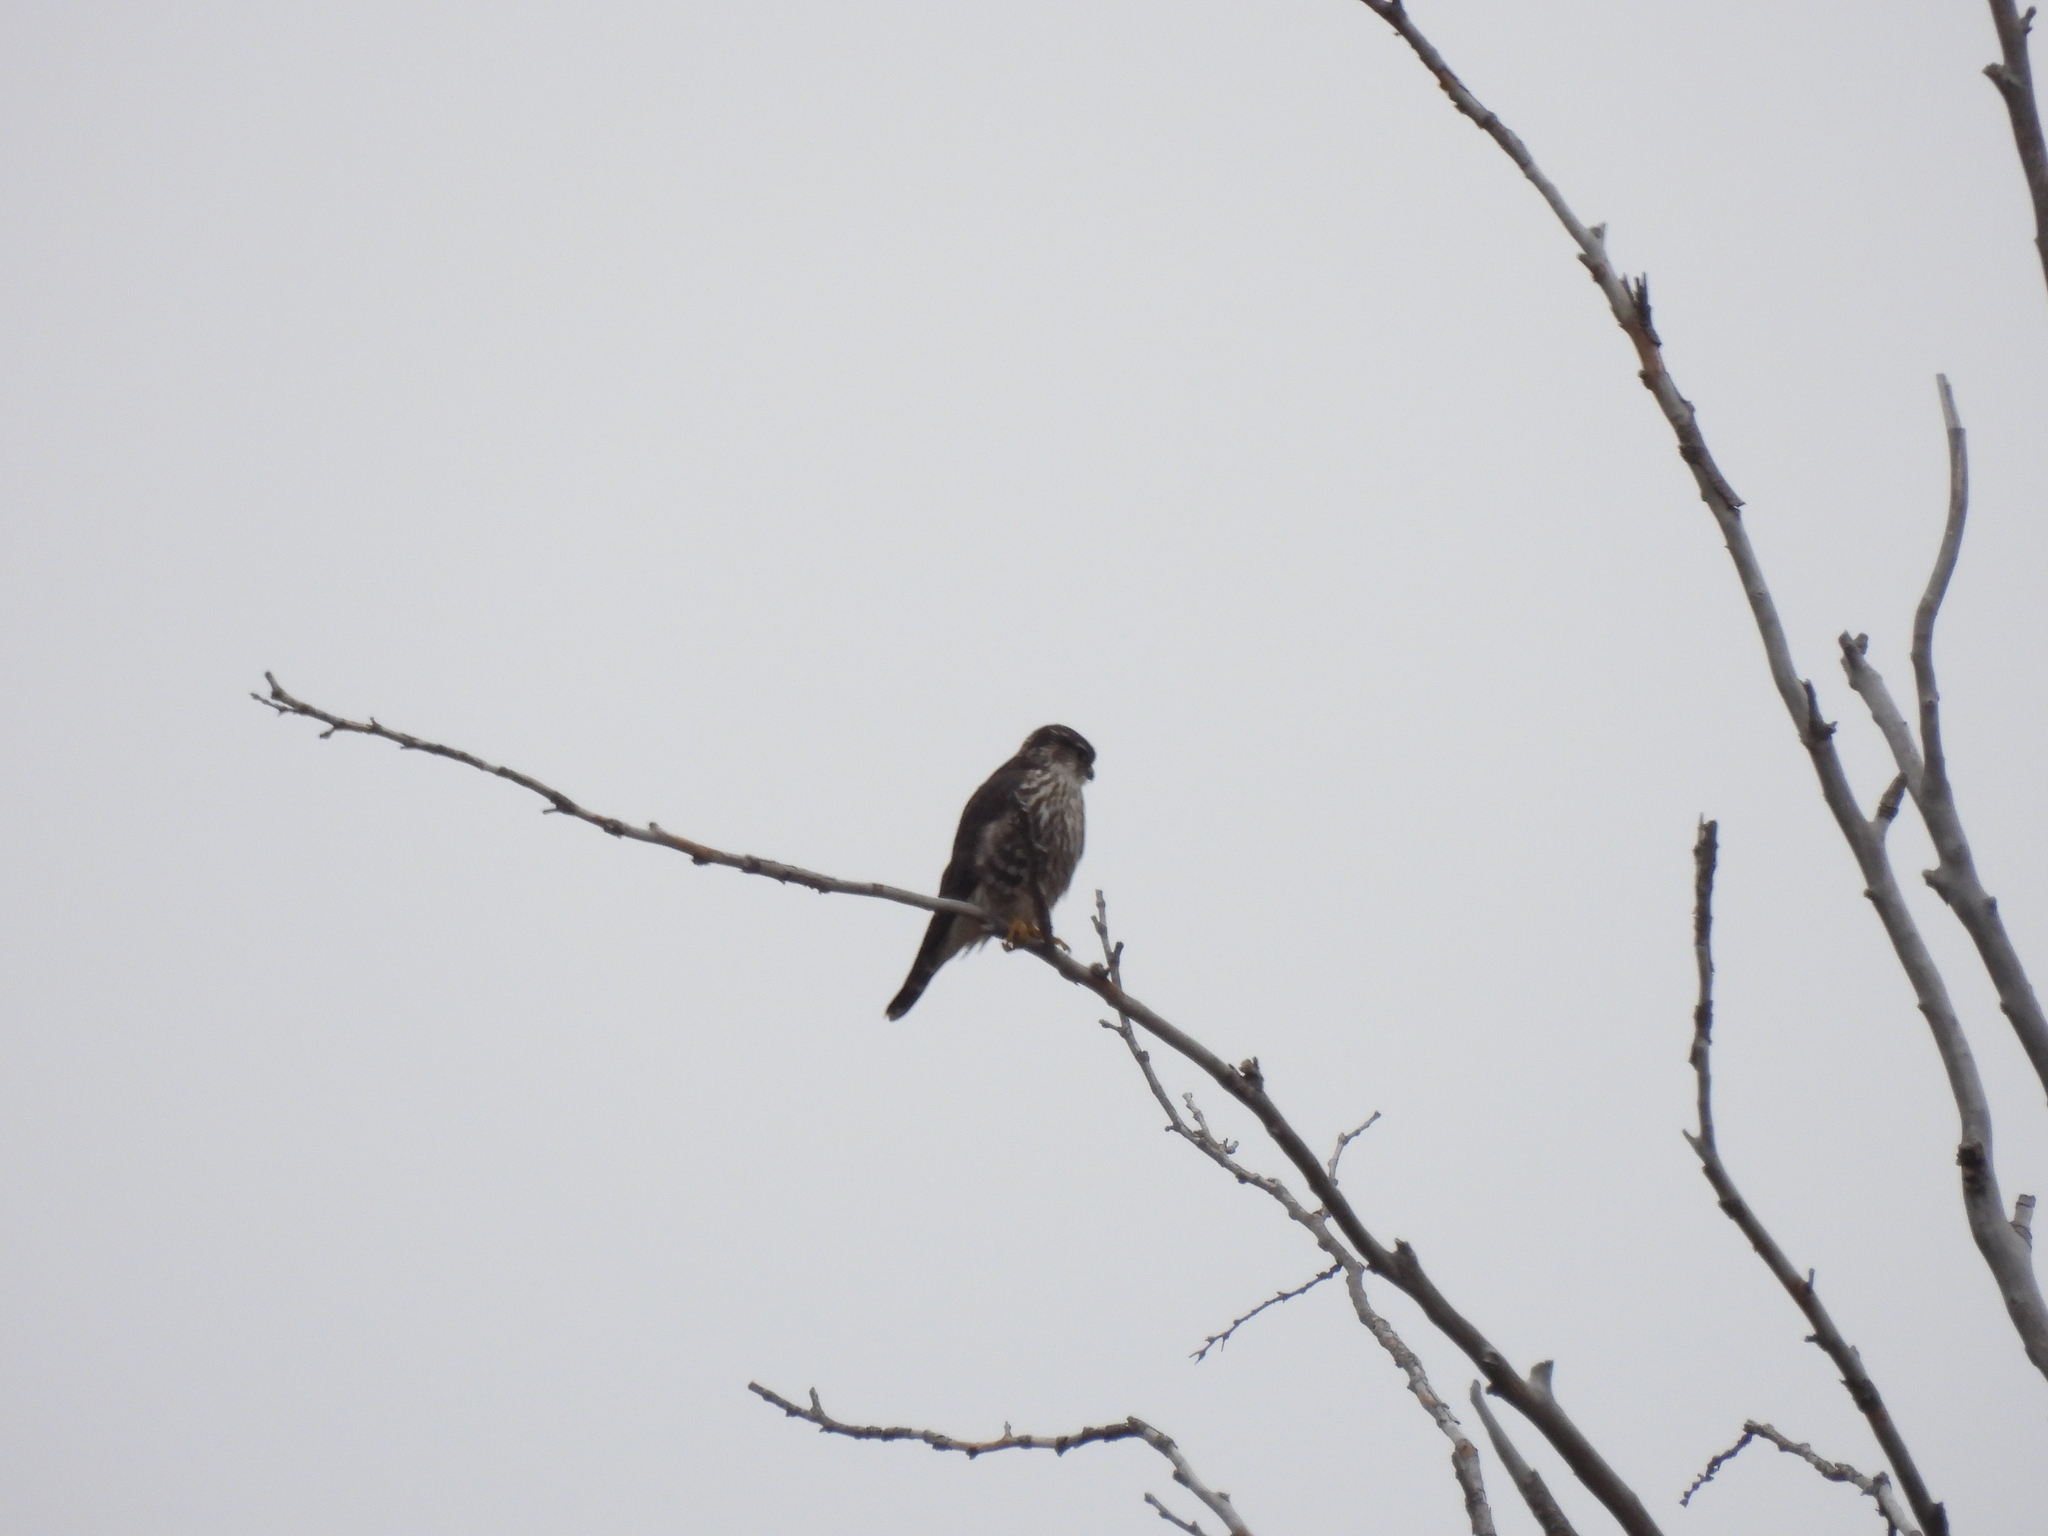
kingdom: Animalia
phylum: Chordata
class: Aves
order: Falconiformes
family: Falconidae
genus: Falco
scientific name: Falco columbarius
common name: Merlin
